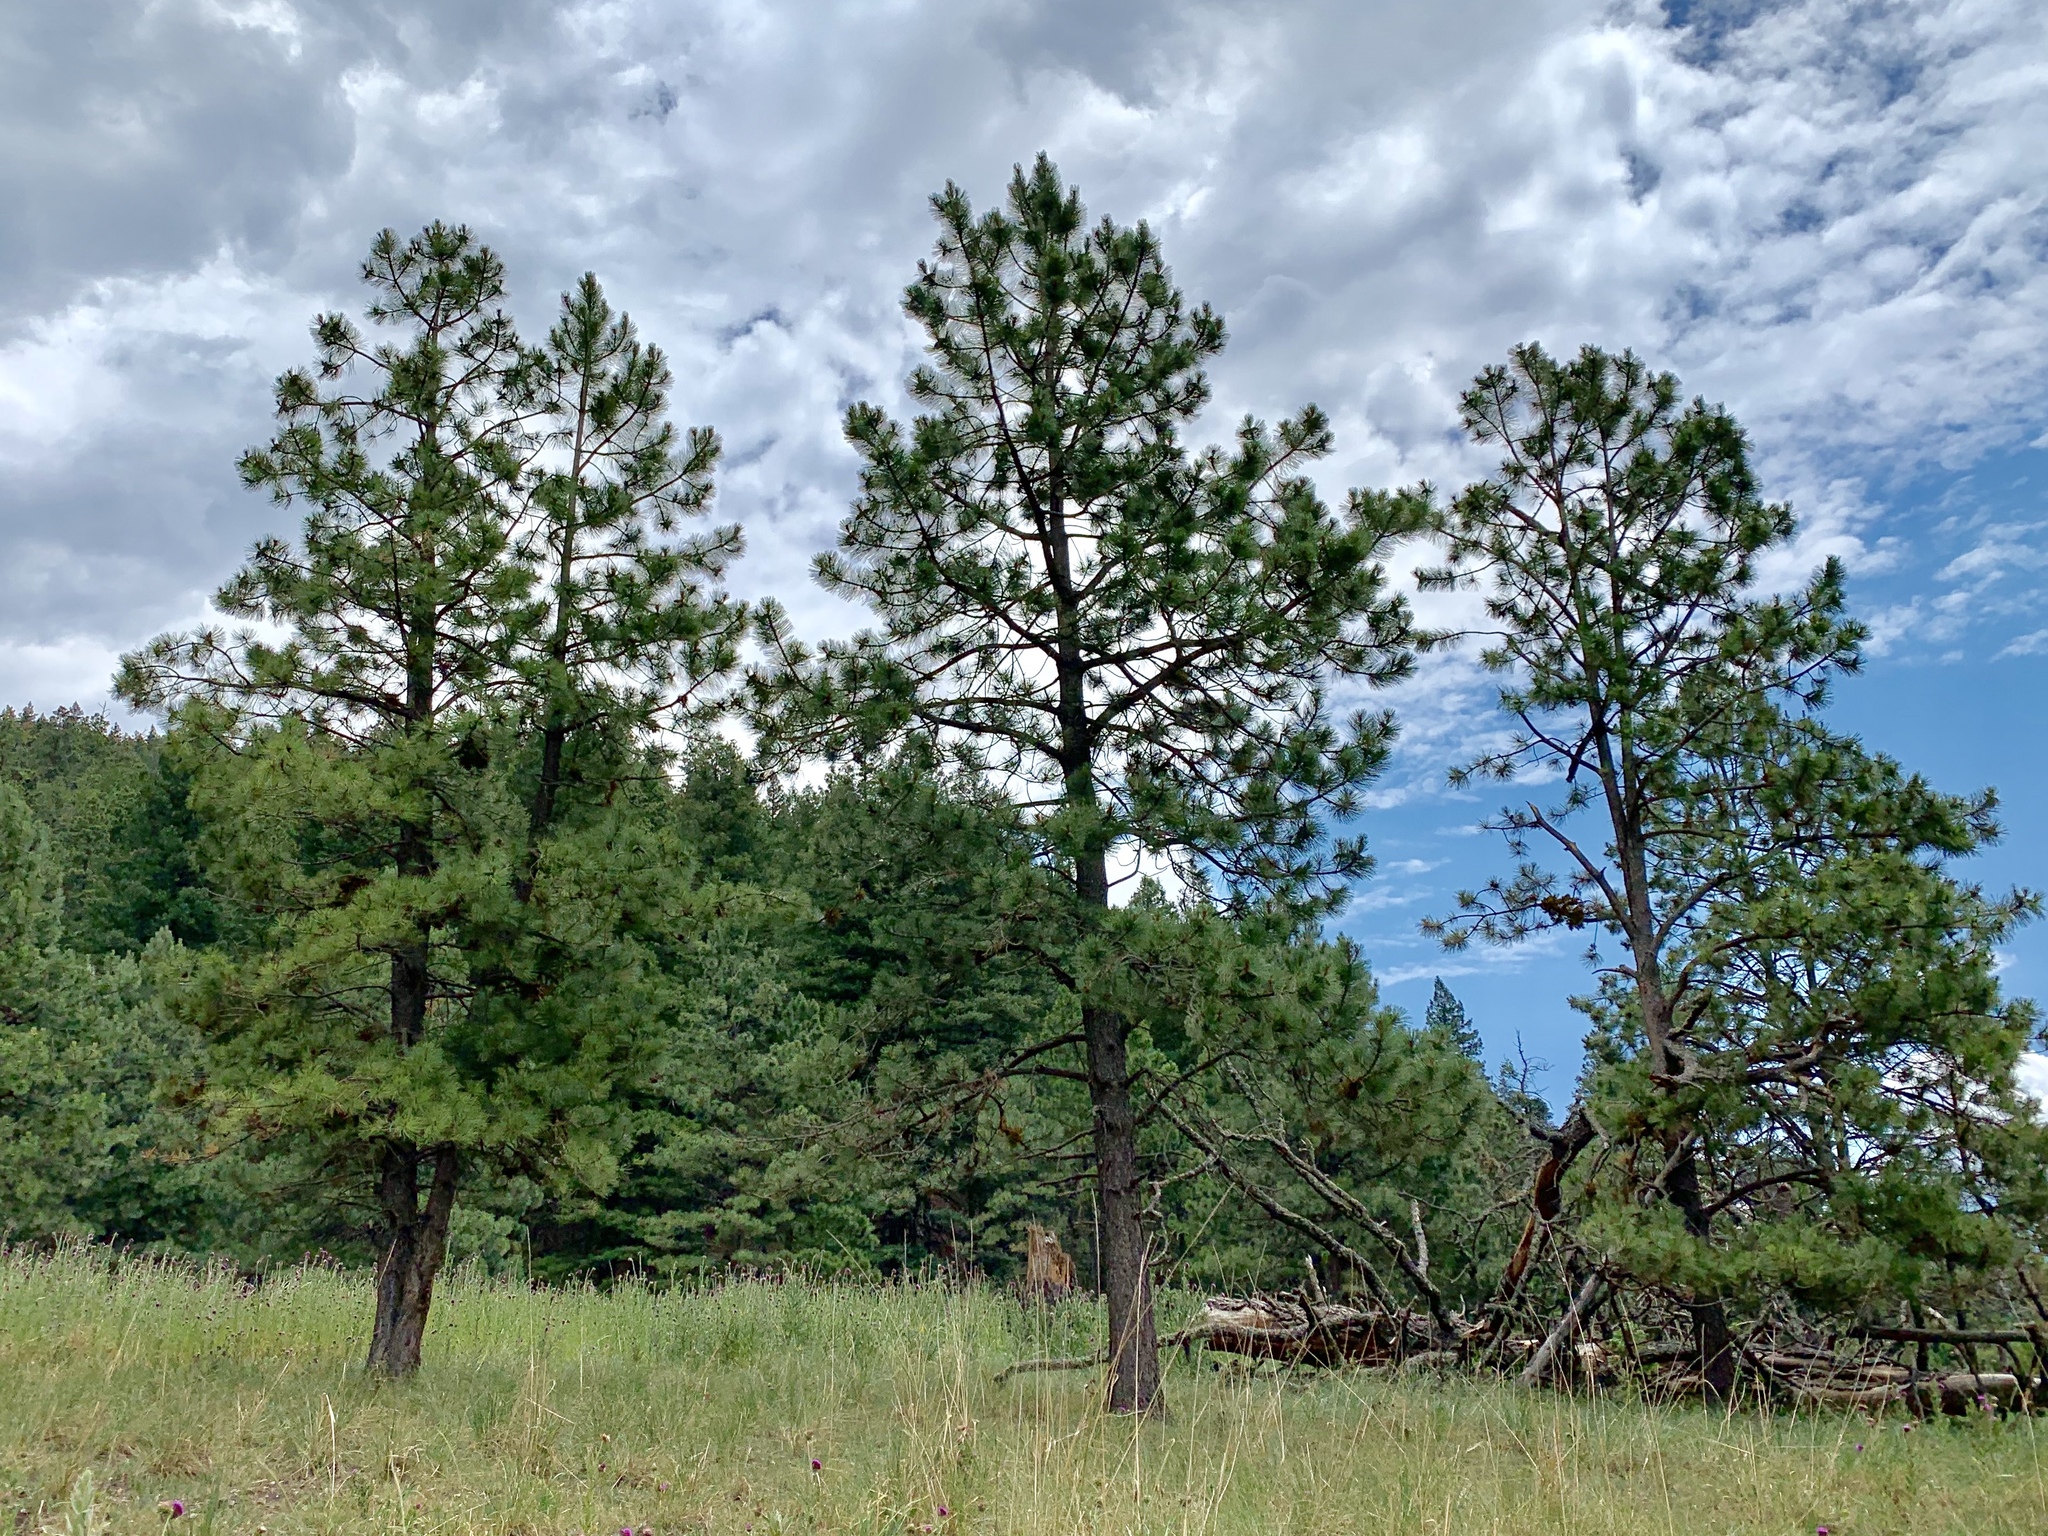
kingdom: Plantae
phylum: Tracheophyta
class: Pinopsida
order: Pinales
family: Pinaceae
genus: Pinus
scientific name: Pinus ponderosa
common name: Western yellow-pine
